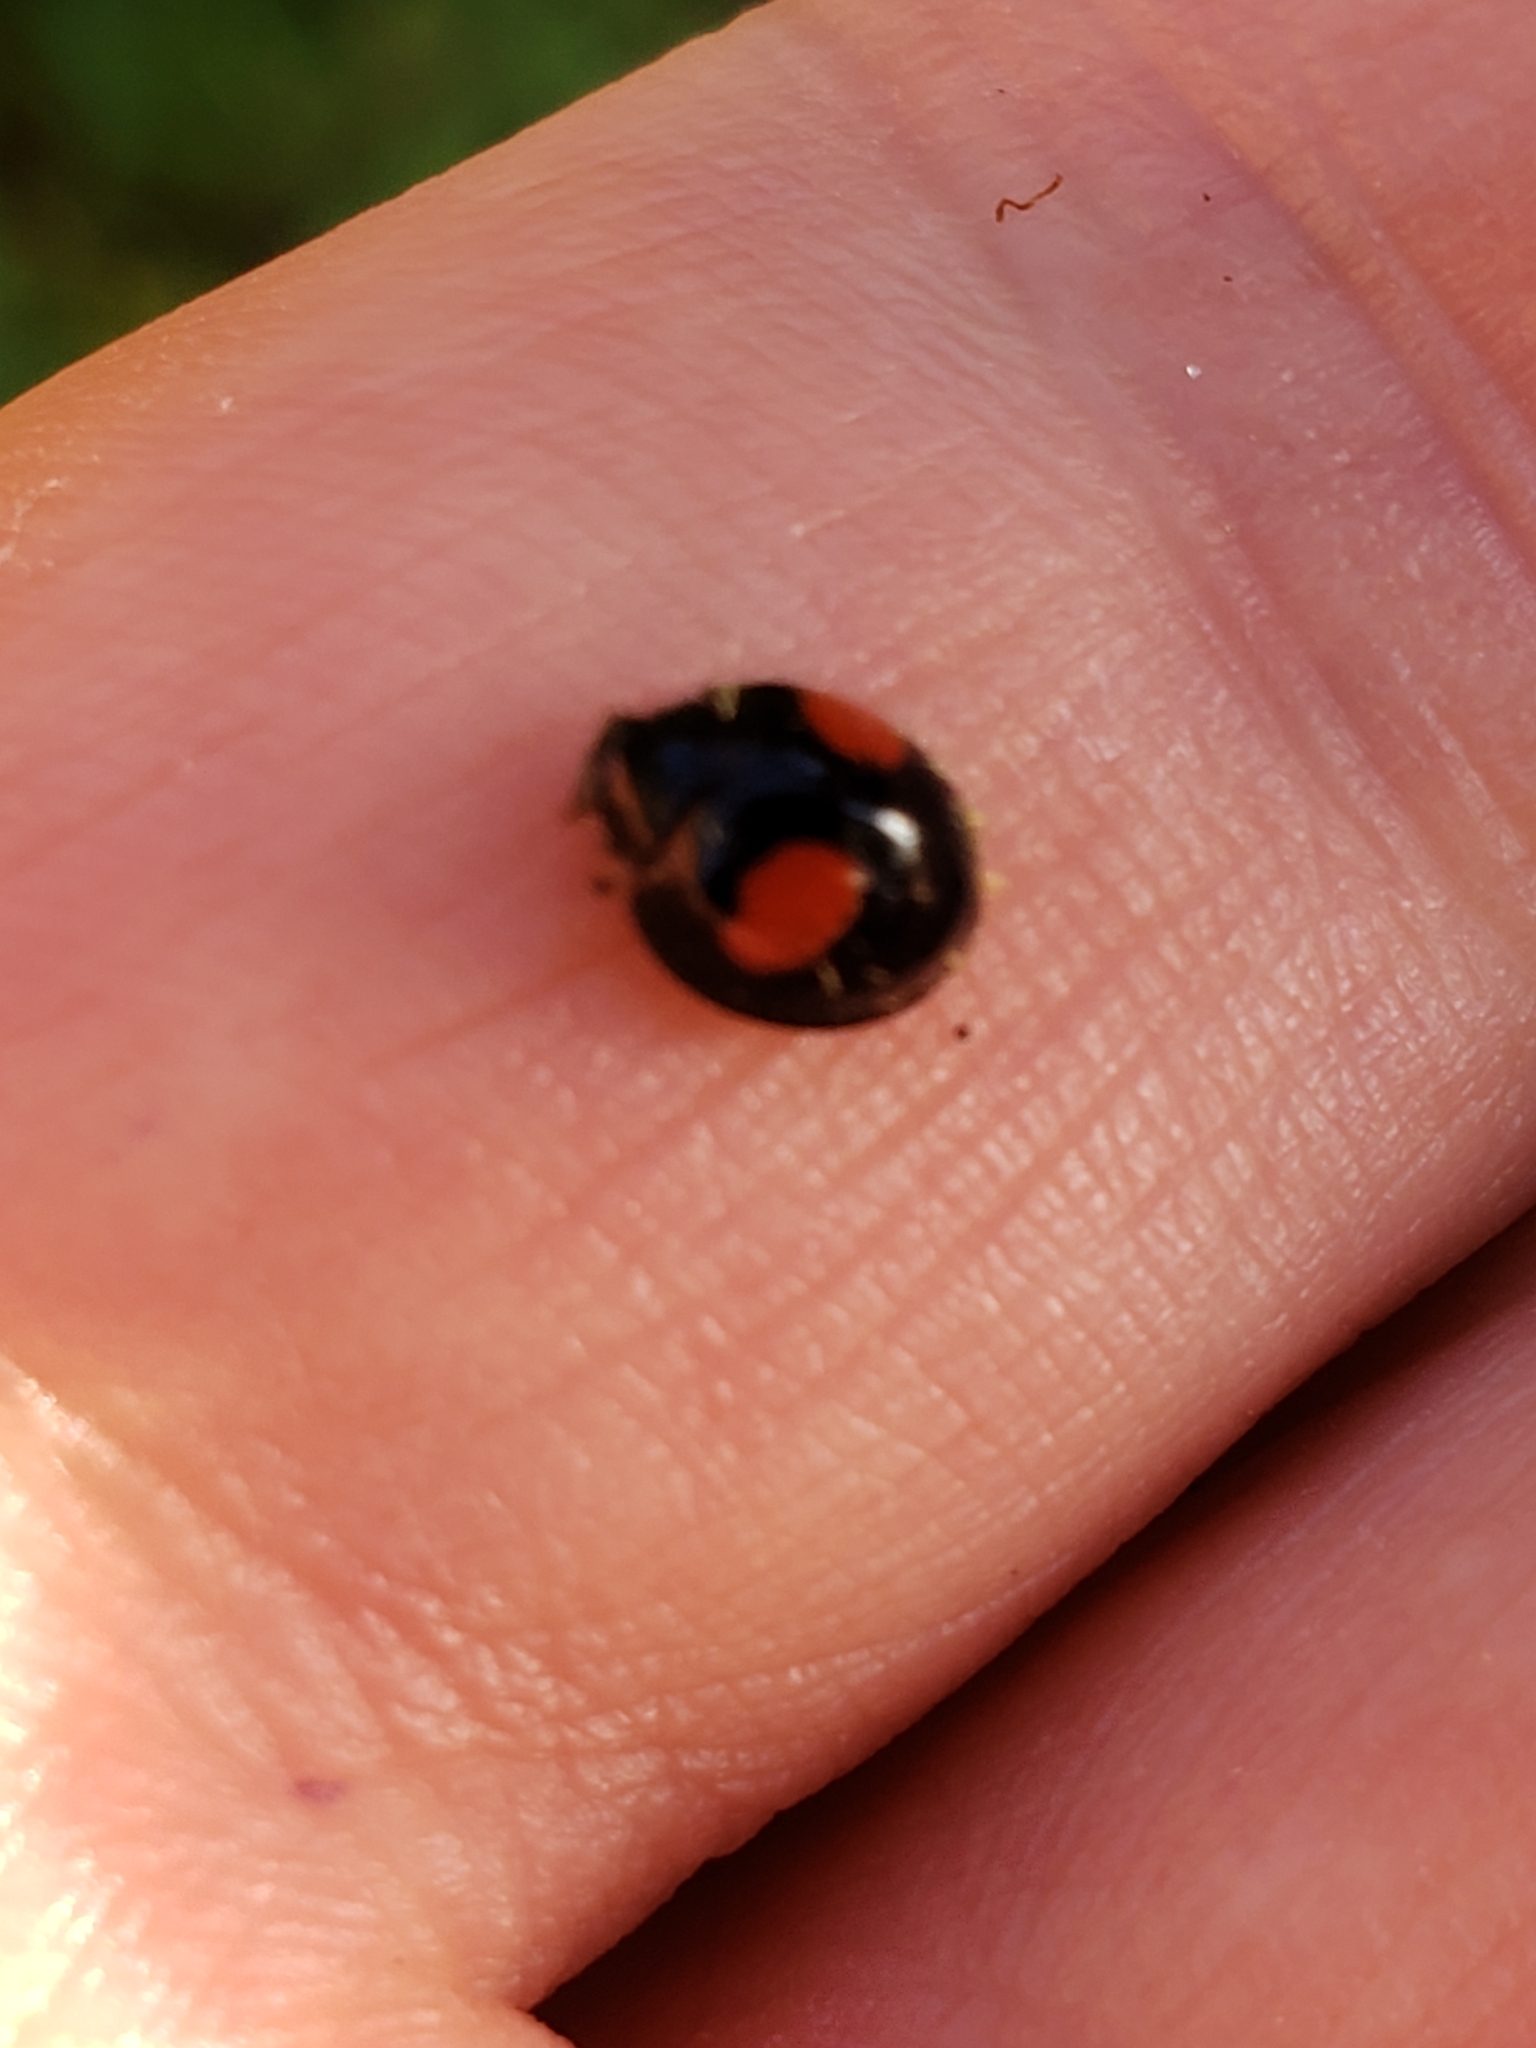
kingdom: Animalia
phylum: Arthropoda
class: Insecta
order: Coleoptera
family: Coccinellidae
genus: Chilocorus
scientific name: Chilocorus cacti
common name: Cactus lady beetle
